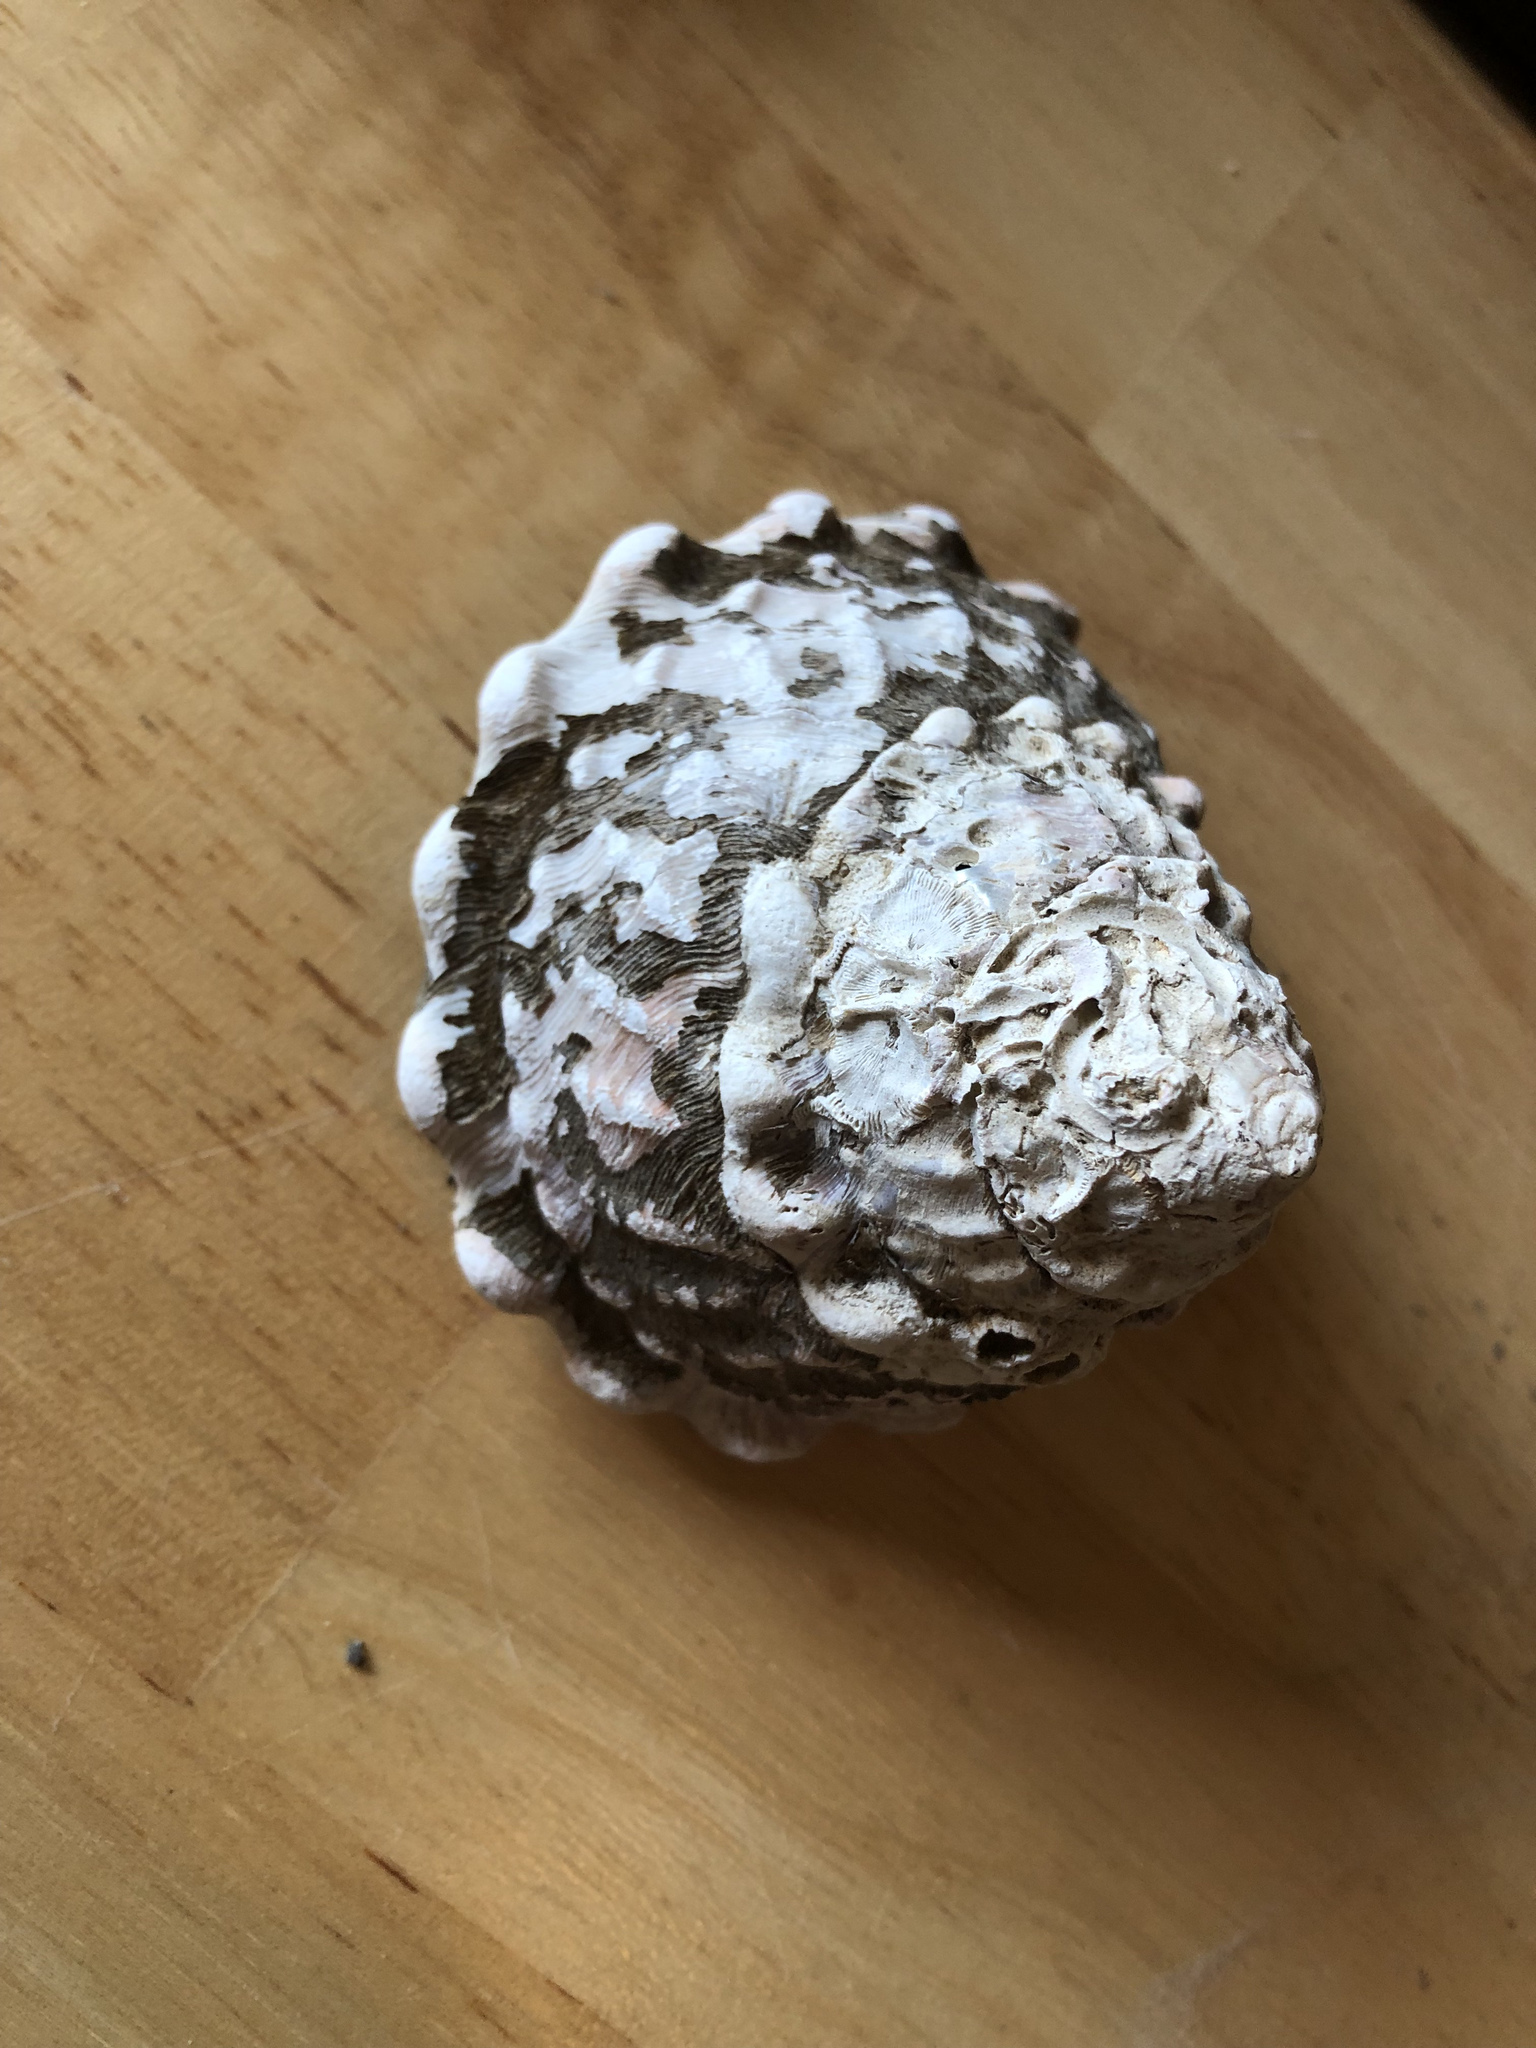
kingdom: Animalia
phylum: Mollusca
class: Gastropoda
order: Trochida
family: Turbinidae
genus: Megastraea
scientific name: Megastraea undosa
